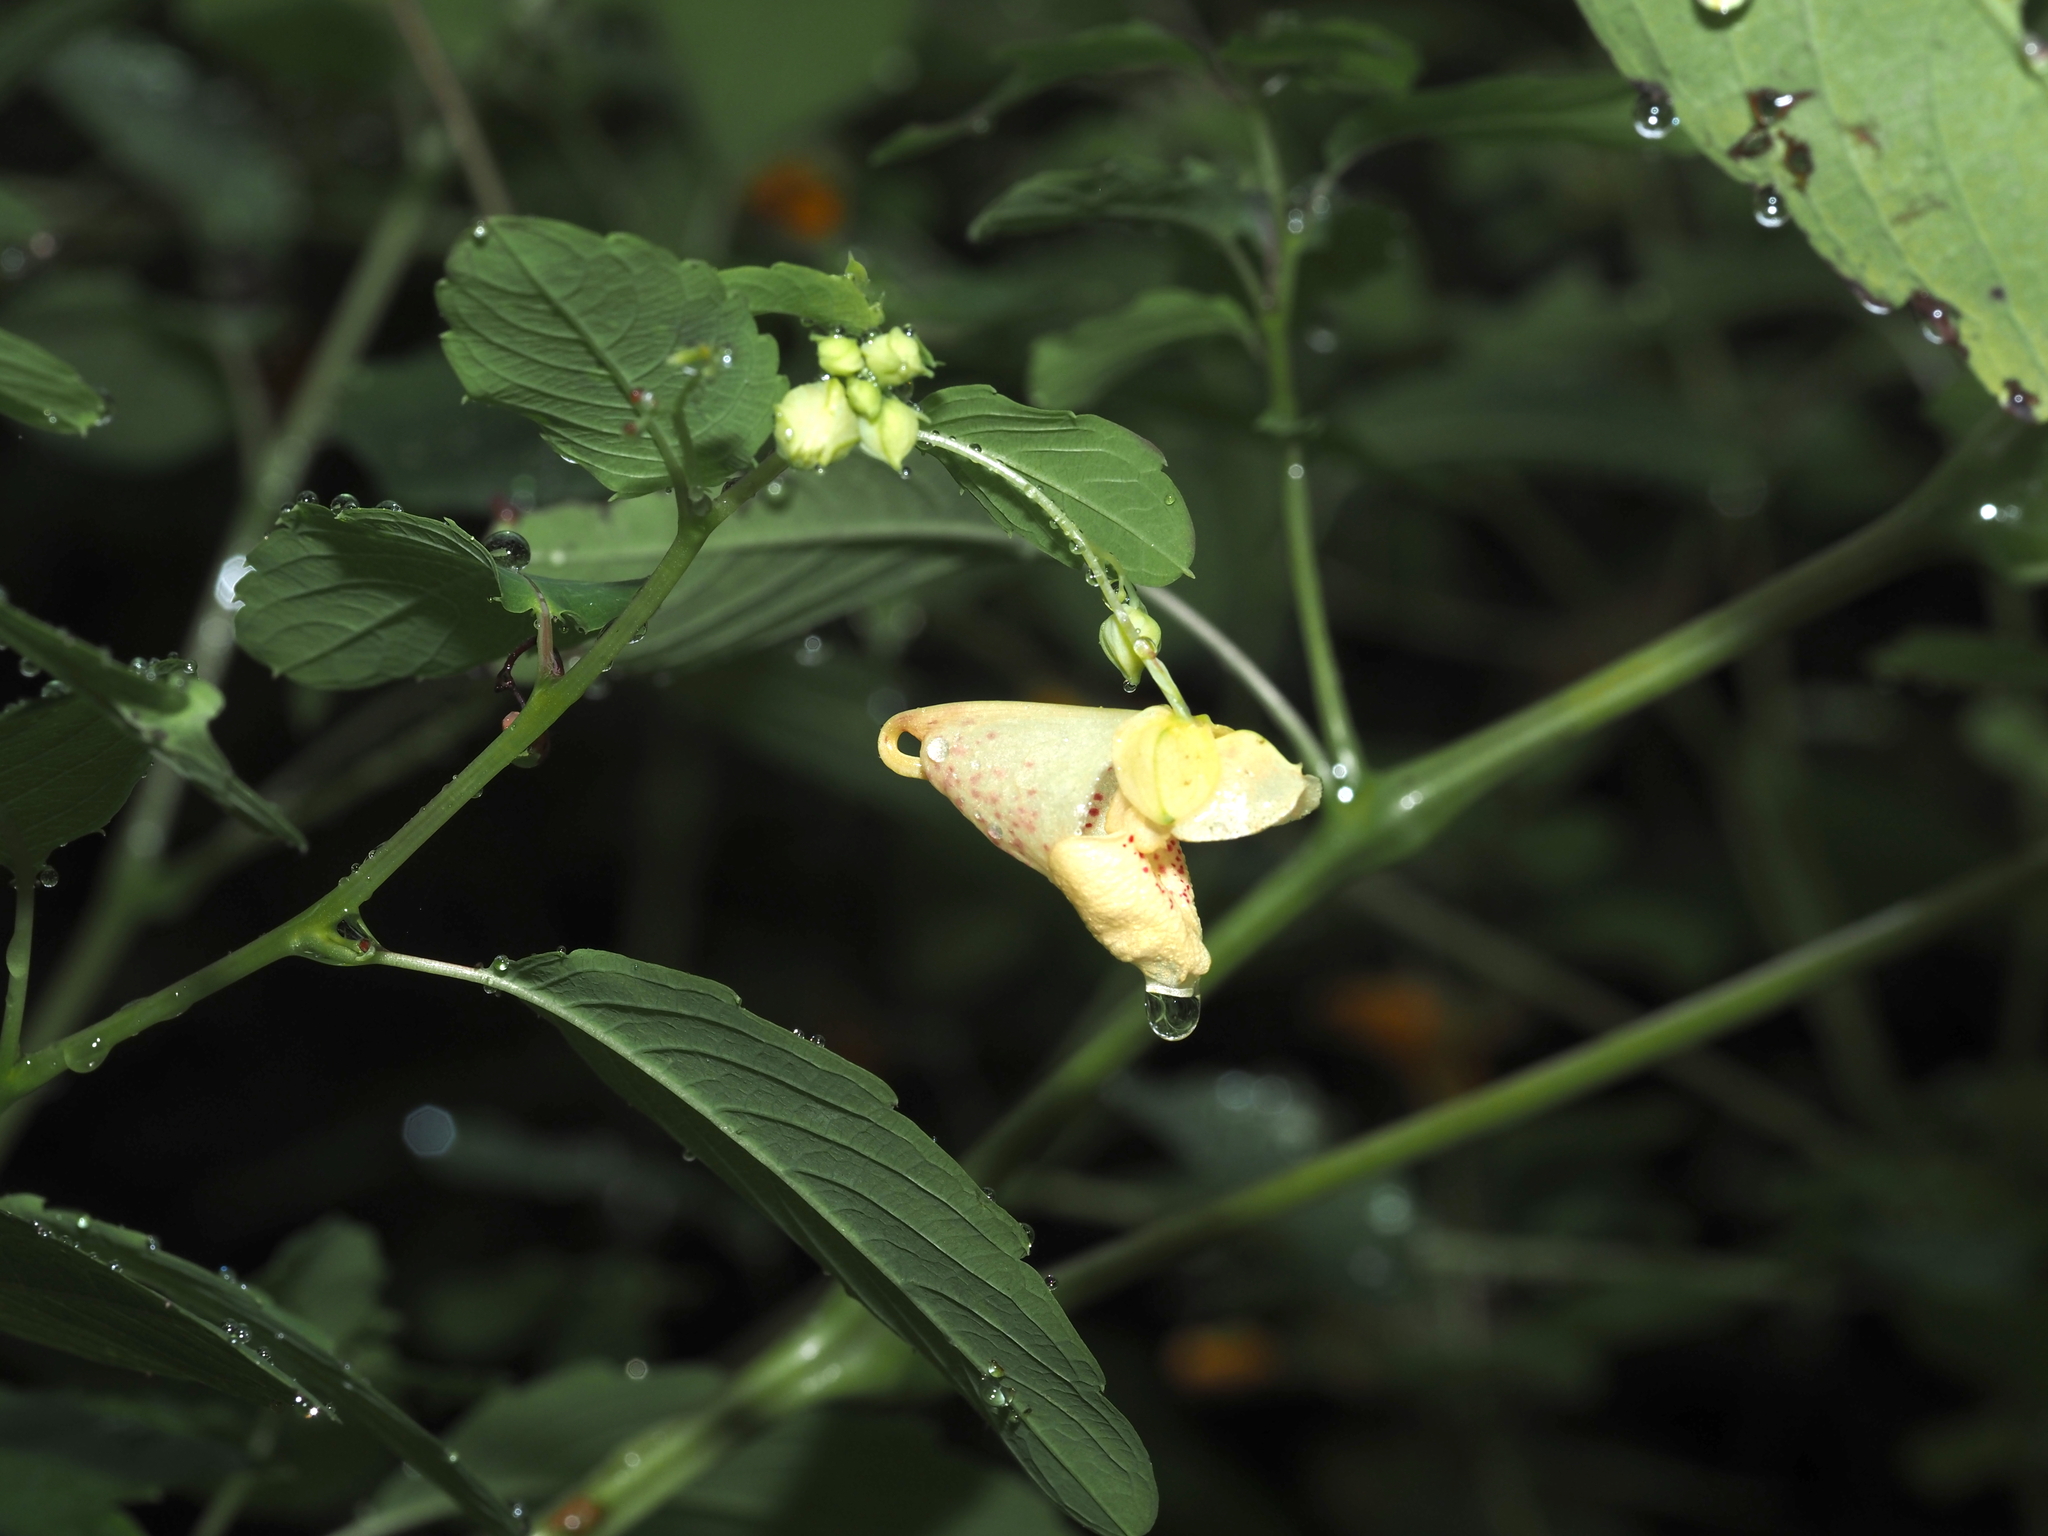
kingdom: Plantae
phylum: Tracheophyta
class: Magnoliopsida
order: Ericales
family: Balsaminaceae
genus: Impatiens
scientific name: Impatiens capensis
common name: Orange balsam
